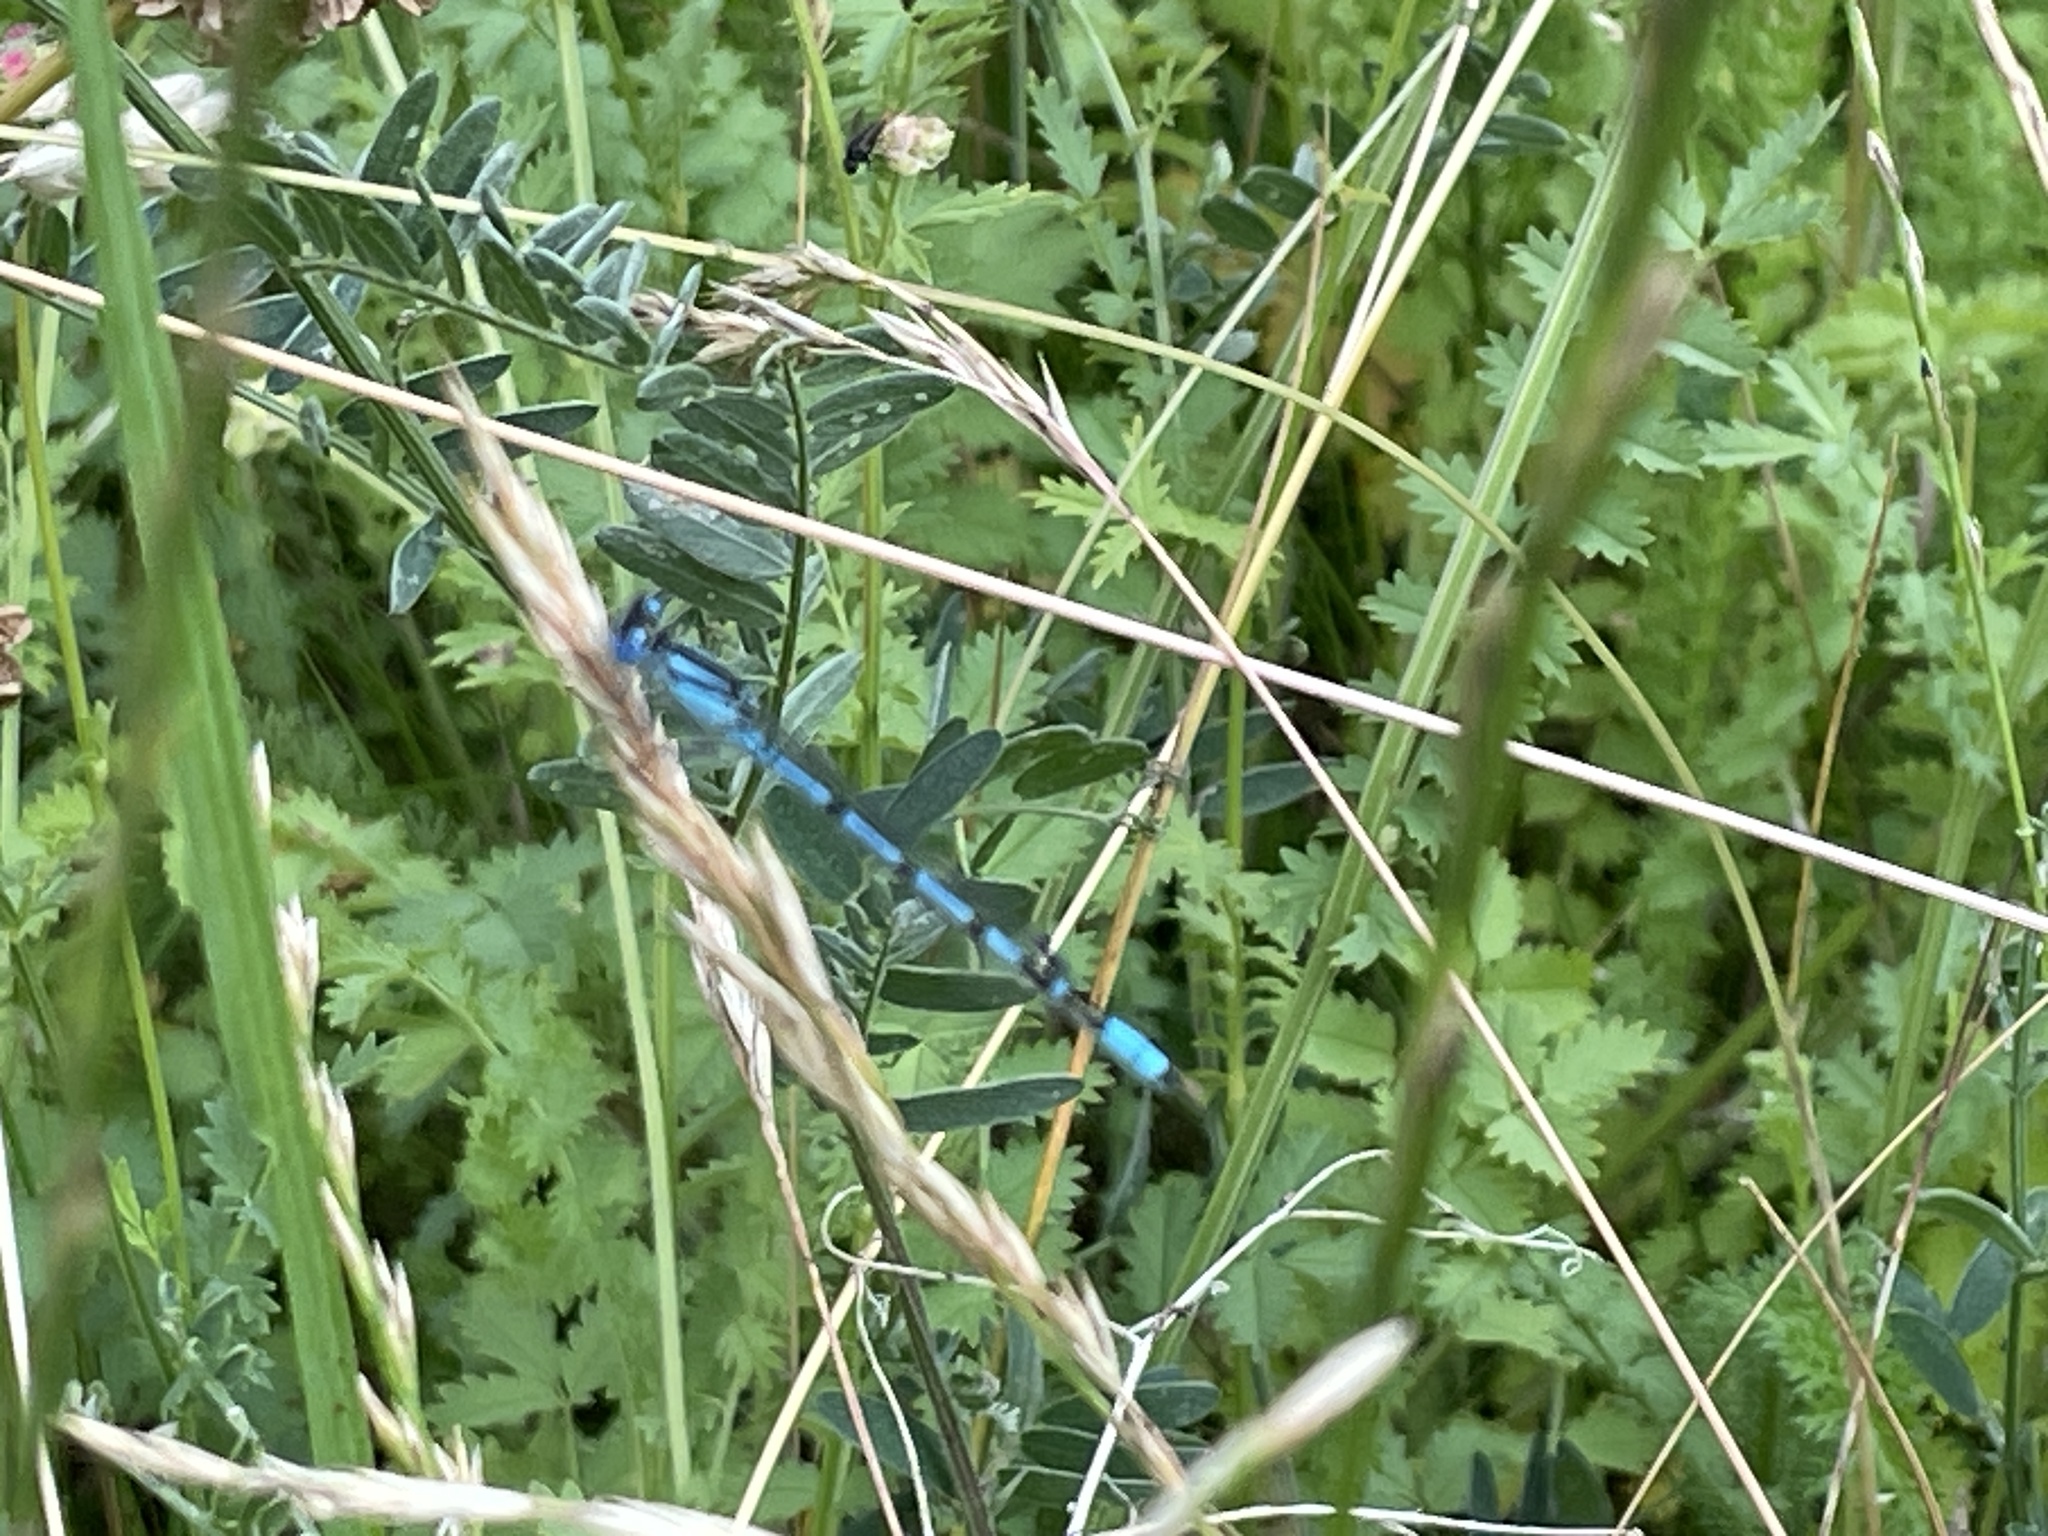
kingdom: Animalia
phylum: Arthropoda
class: Insecta
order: Odonata
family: Coenagrionidae
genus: Enallagma
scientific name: Enallagma cyathigerum
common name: Common blue damselfly
